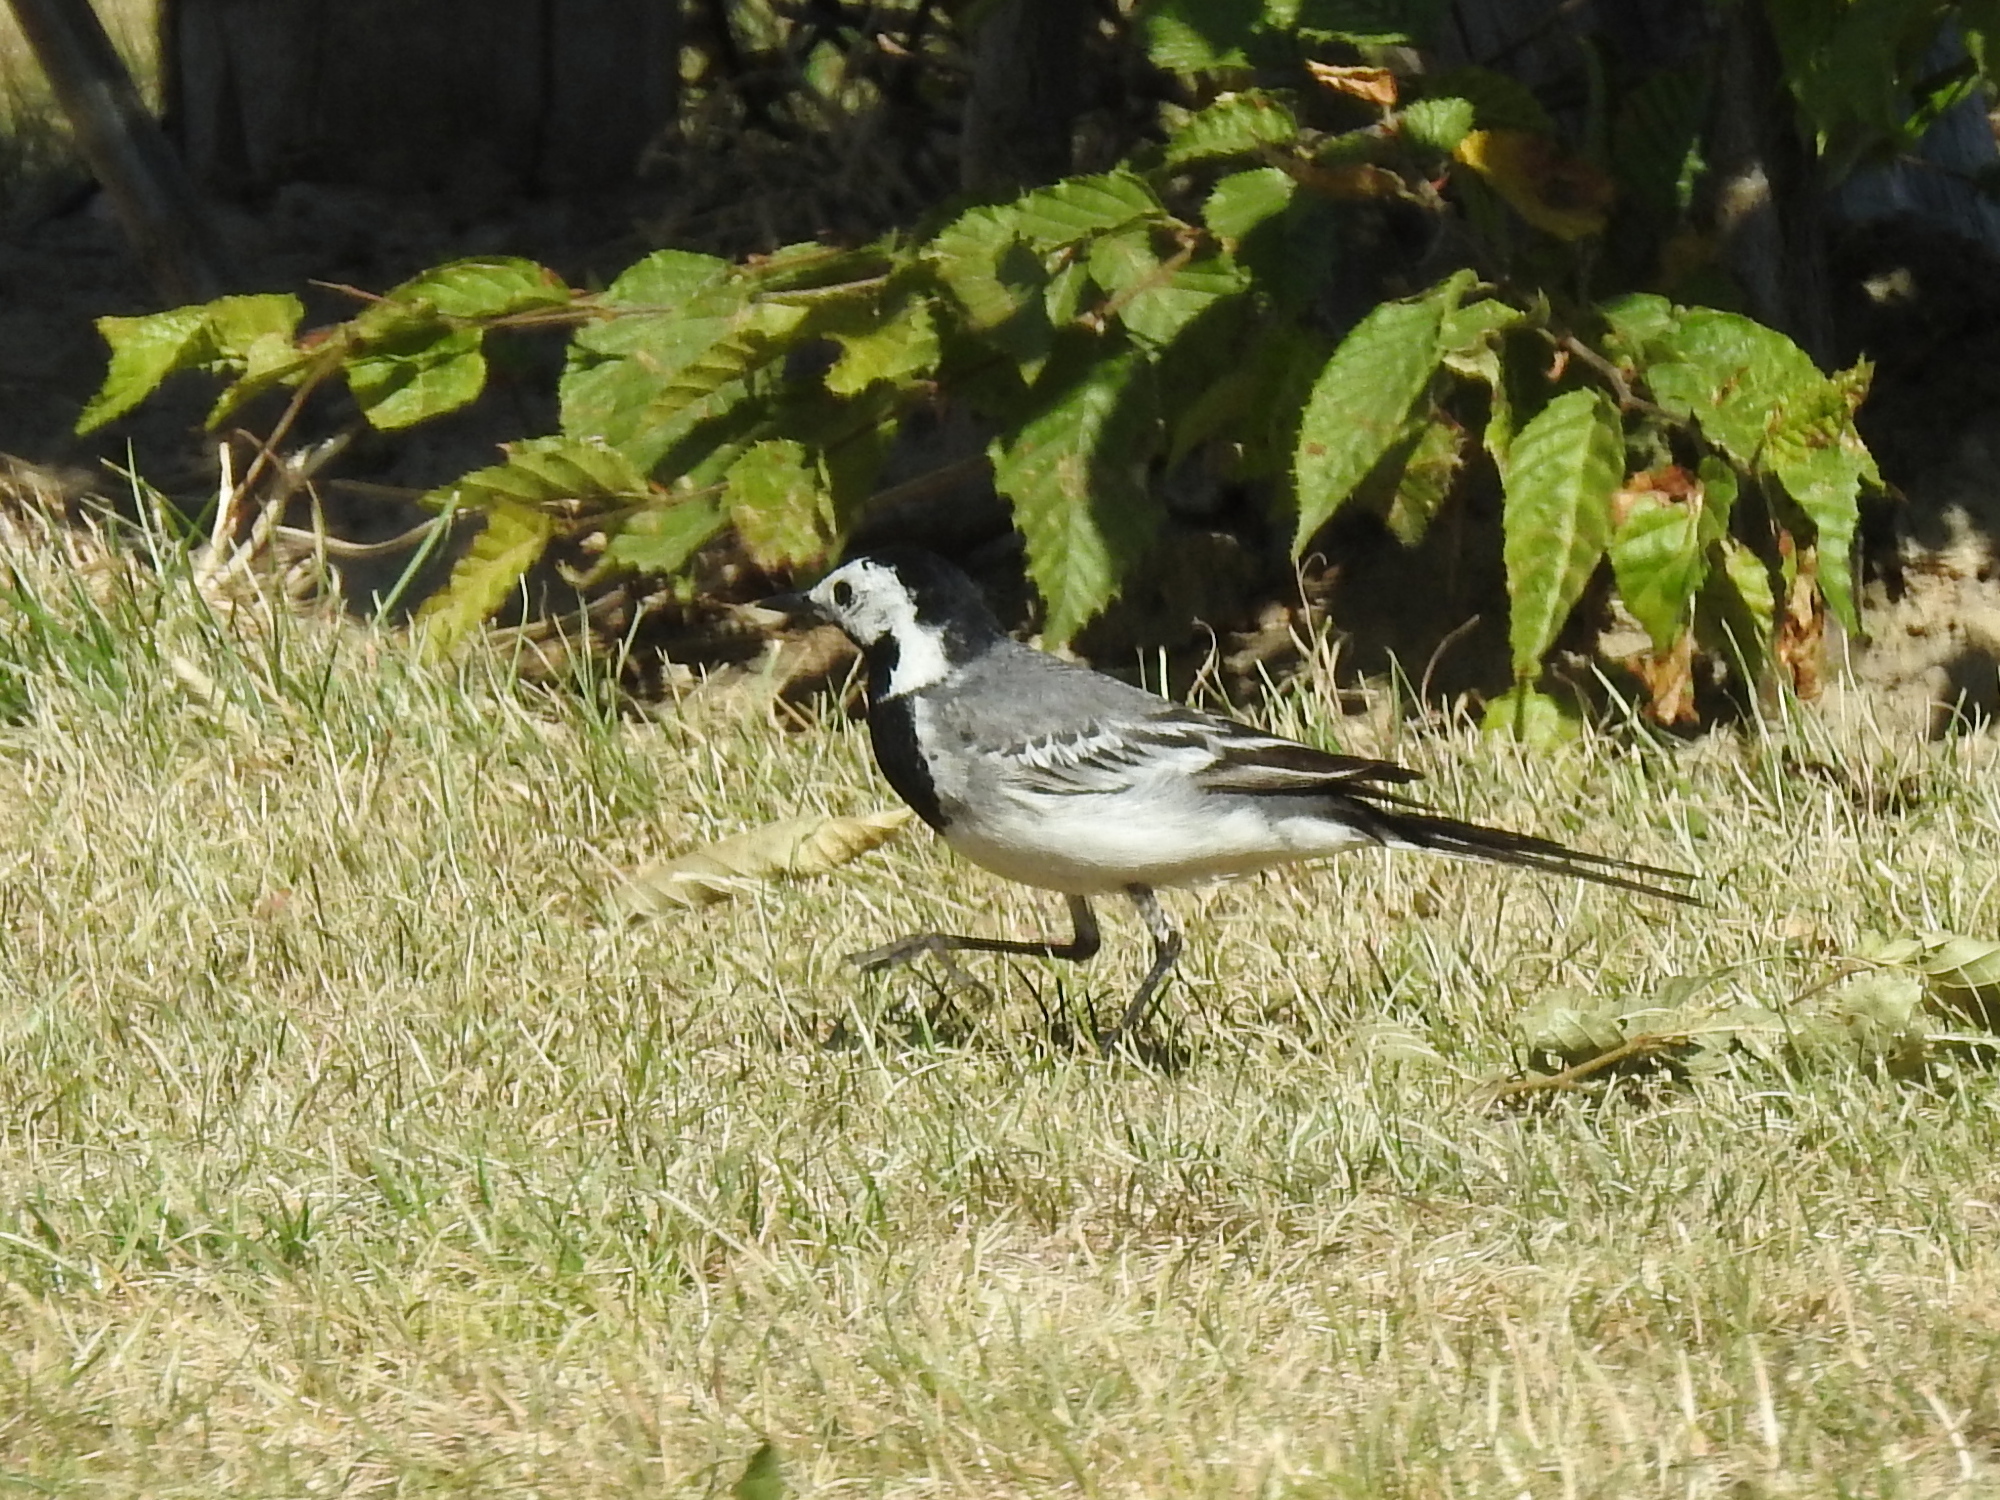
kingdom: Animalia
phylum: Chordata
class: Aves
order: Passeriformes
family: Motacillidae
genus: Motacilla
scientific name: Motacilla alba
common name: White wagtail
